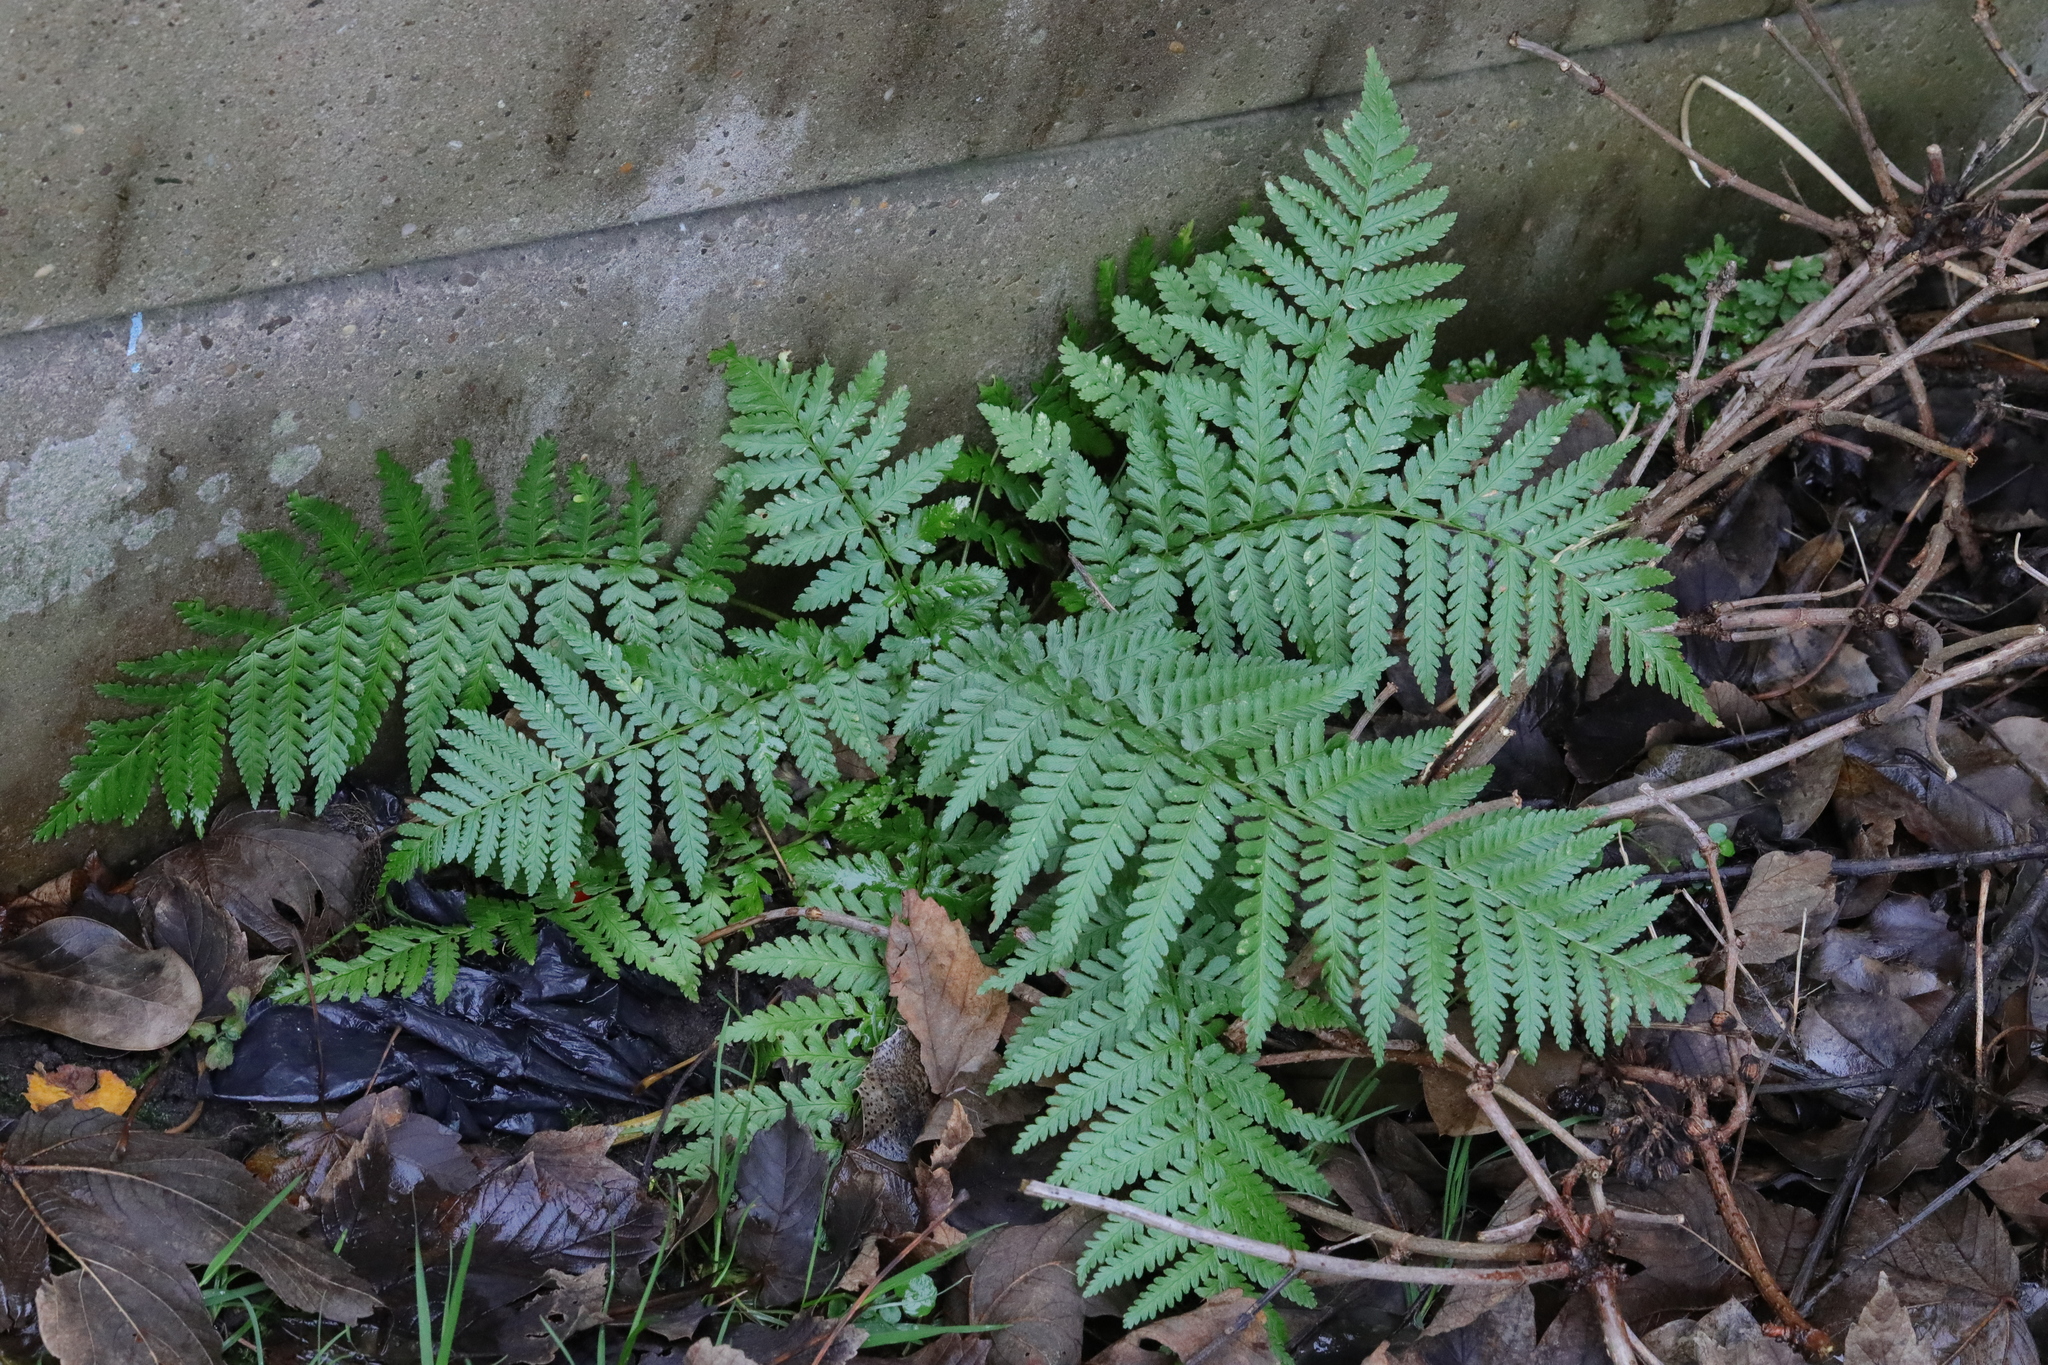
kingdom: Plantae
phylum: Tracheophyta
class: Polypodiopsida
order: Polypodiales
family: Dryopteridaceae
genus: Dryopteris
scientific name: Dryopteris filix-mas
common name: Male fern
